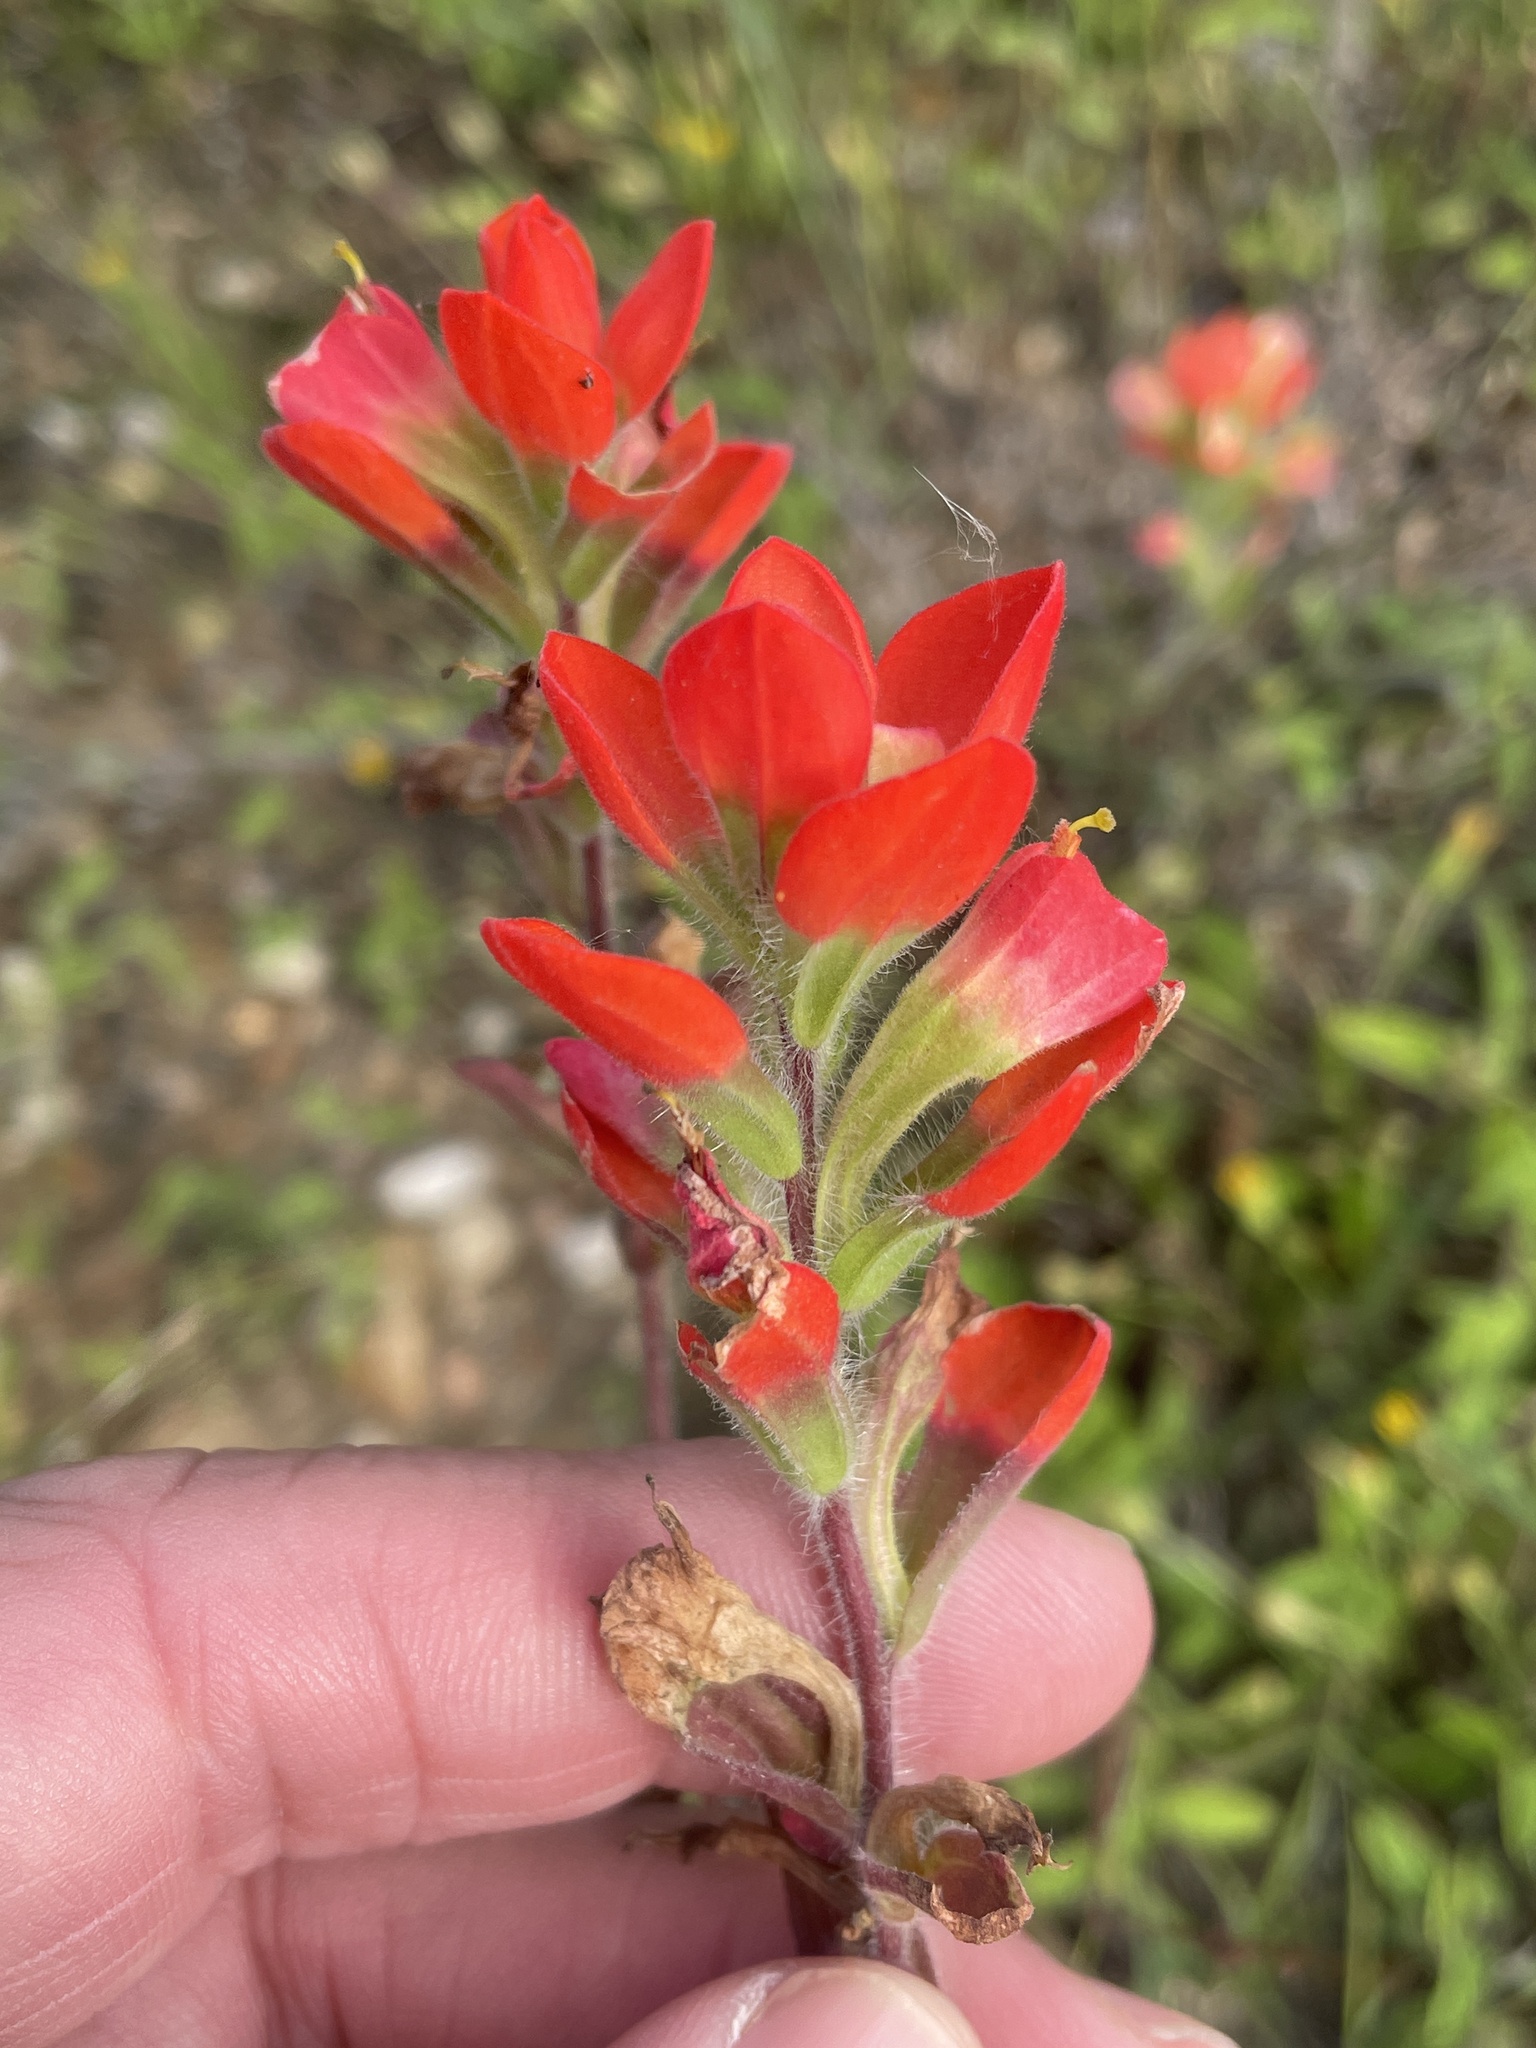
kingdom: Plantae
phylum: Tracheophyta
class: Magnoliopsida
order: Lamiales
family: Orobanchaceae
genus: Castilleja
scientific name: Castilleja indivisa
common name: Texas paintbrush
